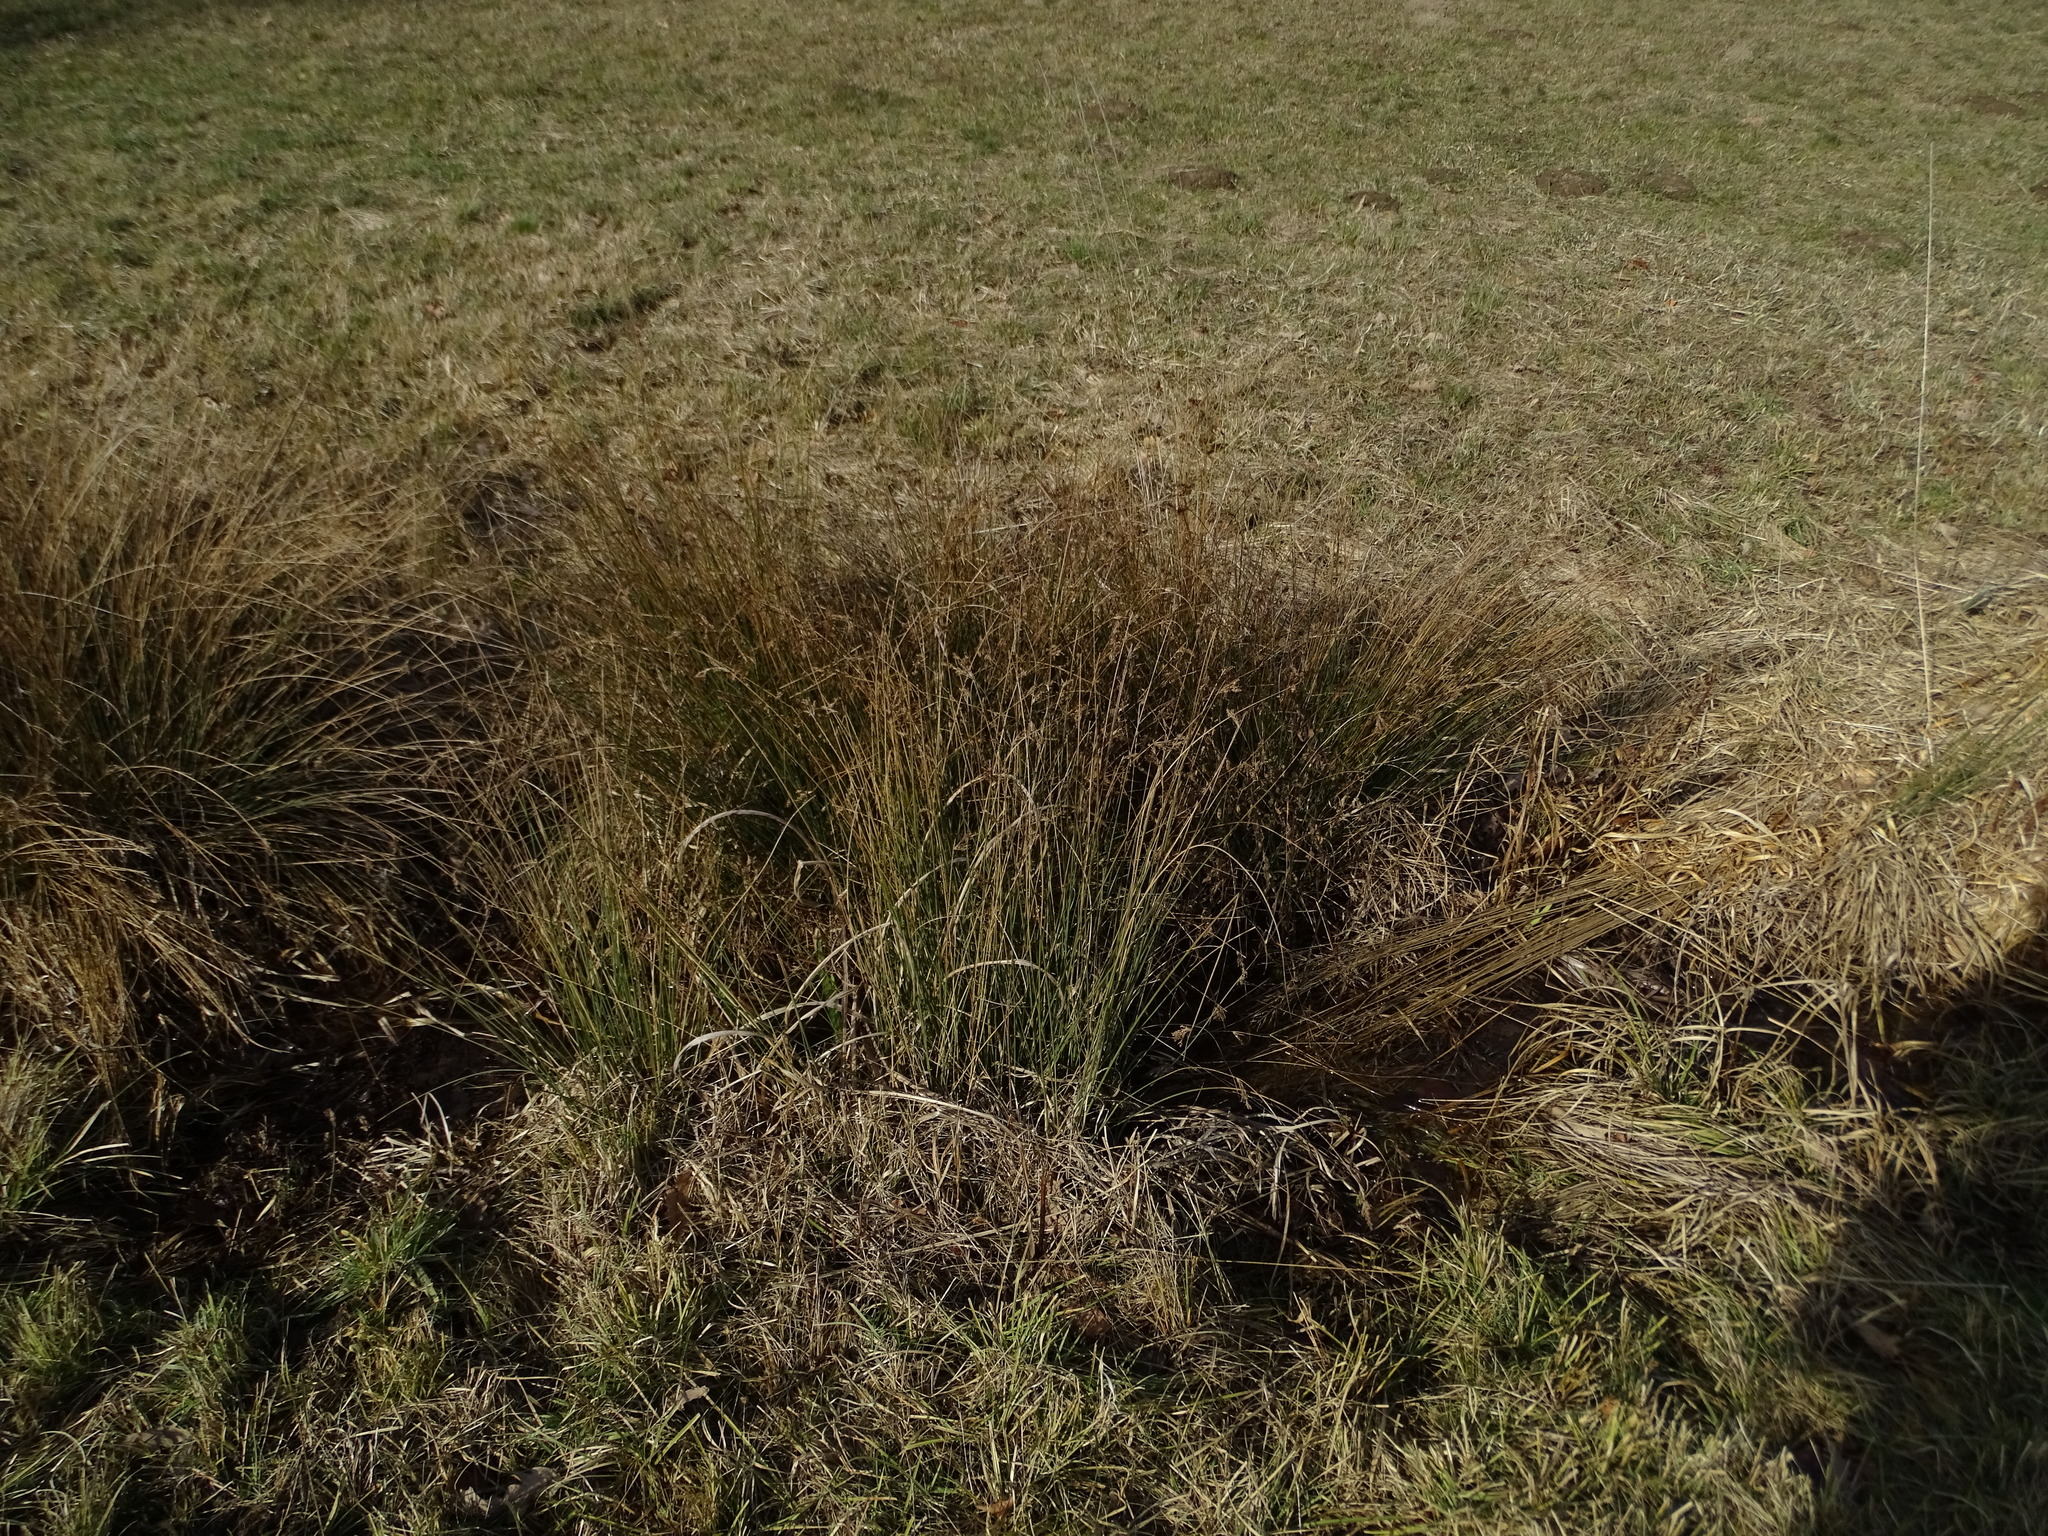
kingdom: Plantae
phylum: Tracheophyta
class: Liliopsida
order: Poales
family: Juncaceae
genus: Juncus
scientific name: Juncus inflexus
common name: Hard rush
